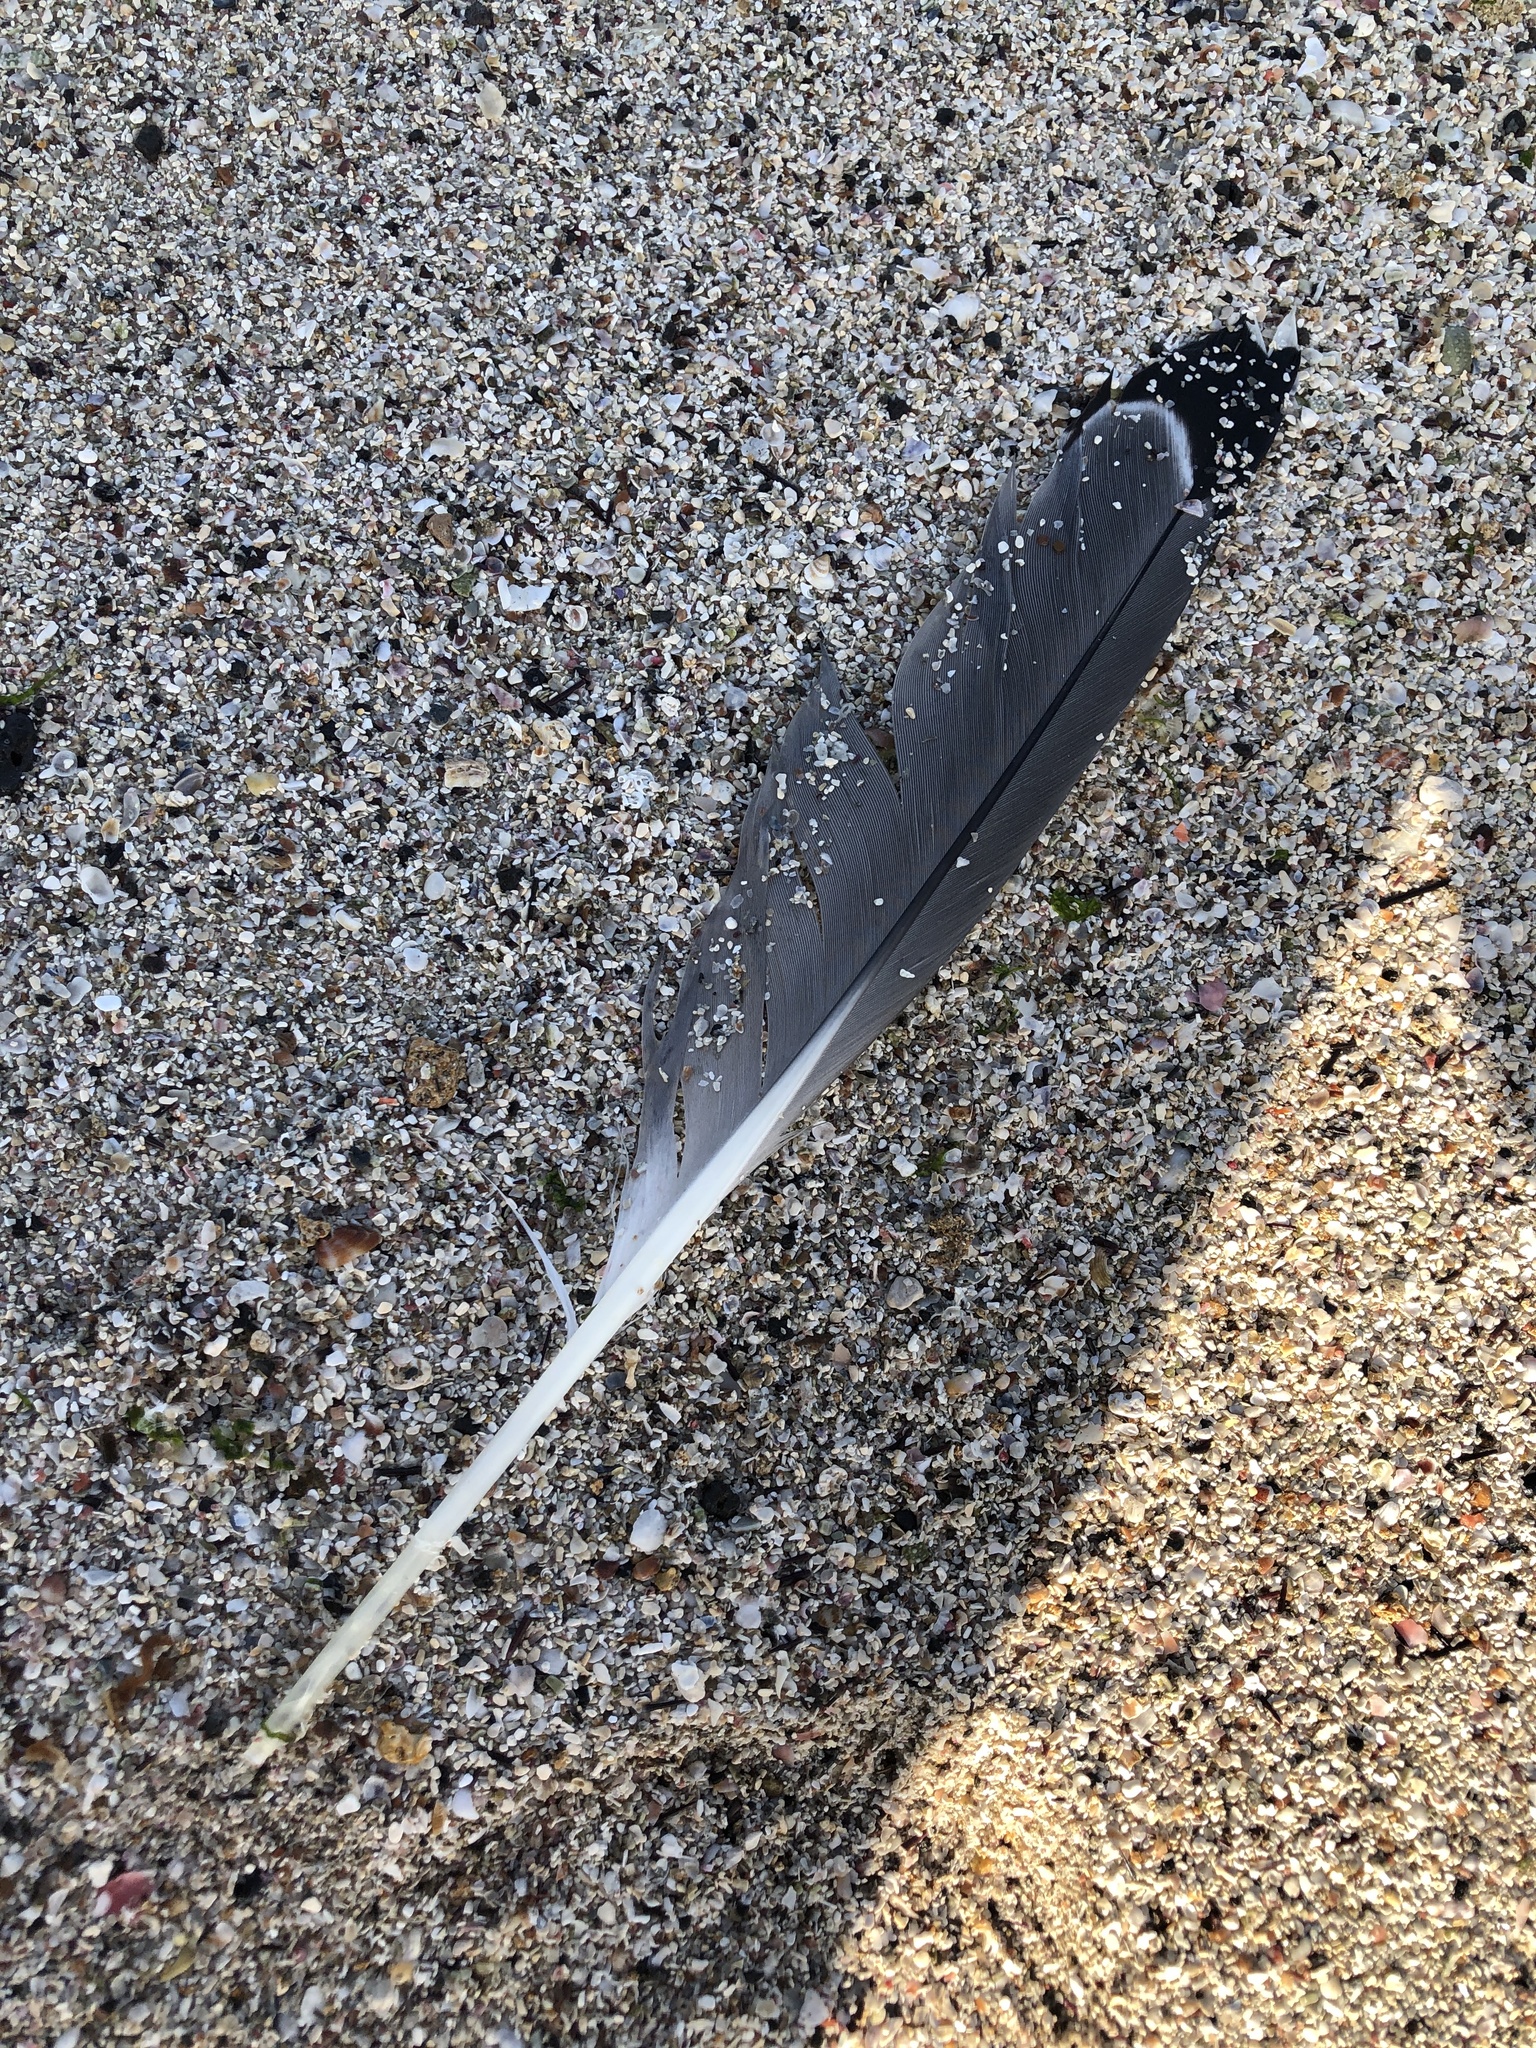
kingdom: Animalia
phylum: Chordata
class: Aves
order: Charadriiformes
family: Laridae
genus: Larus
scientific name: Larus fuscus
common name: Lesser black-backed gull
